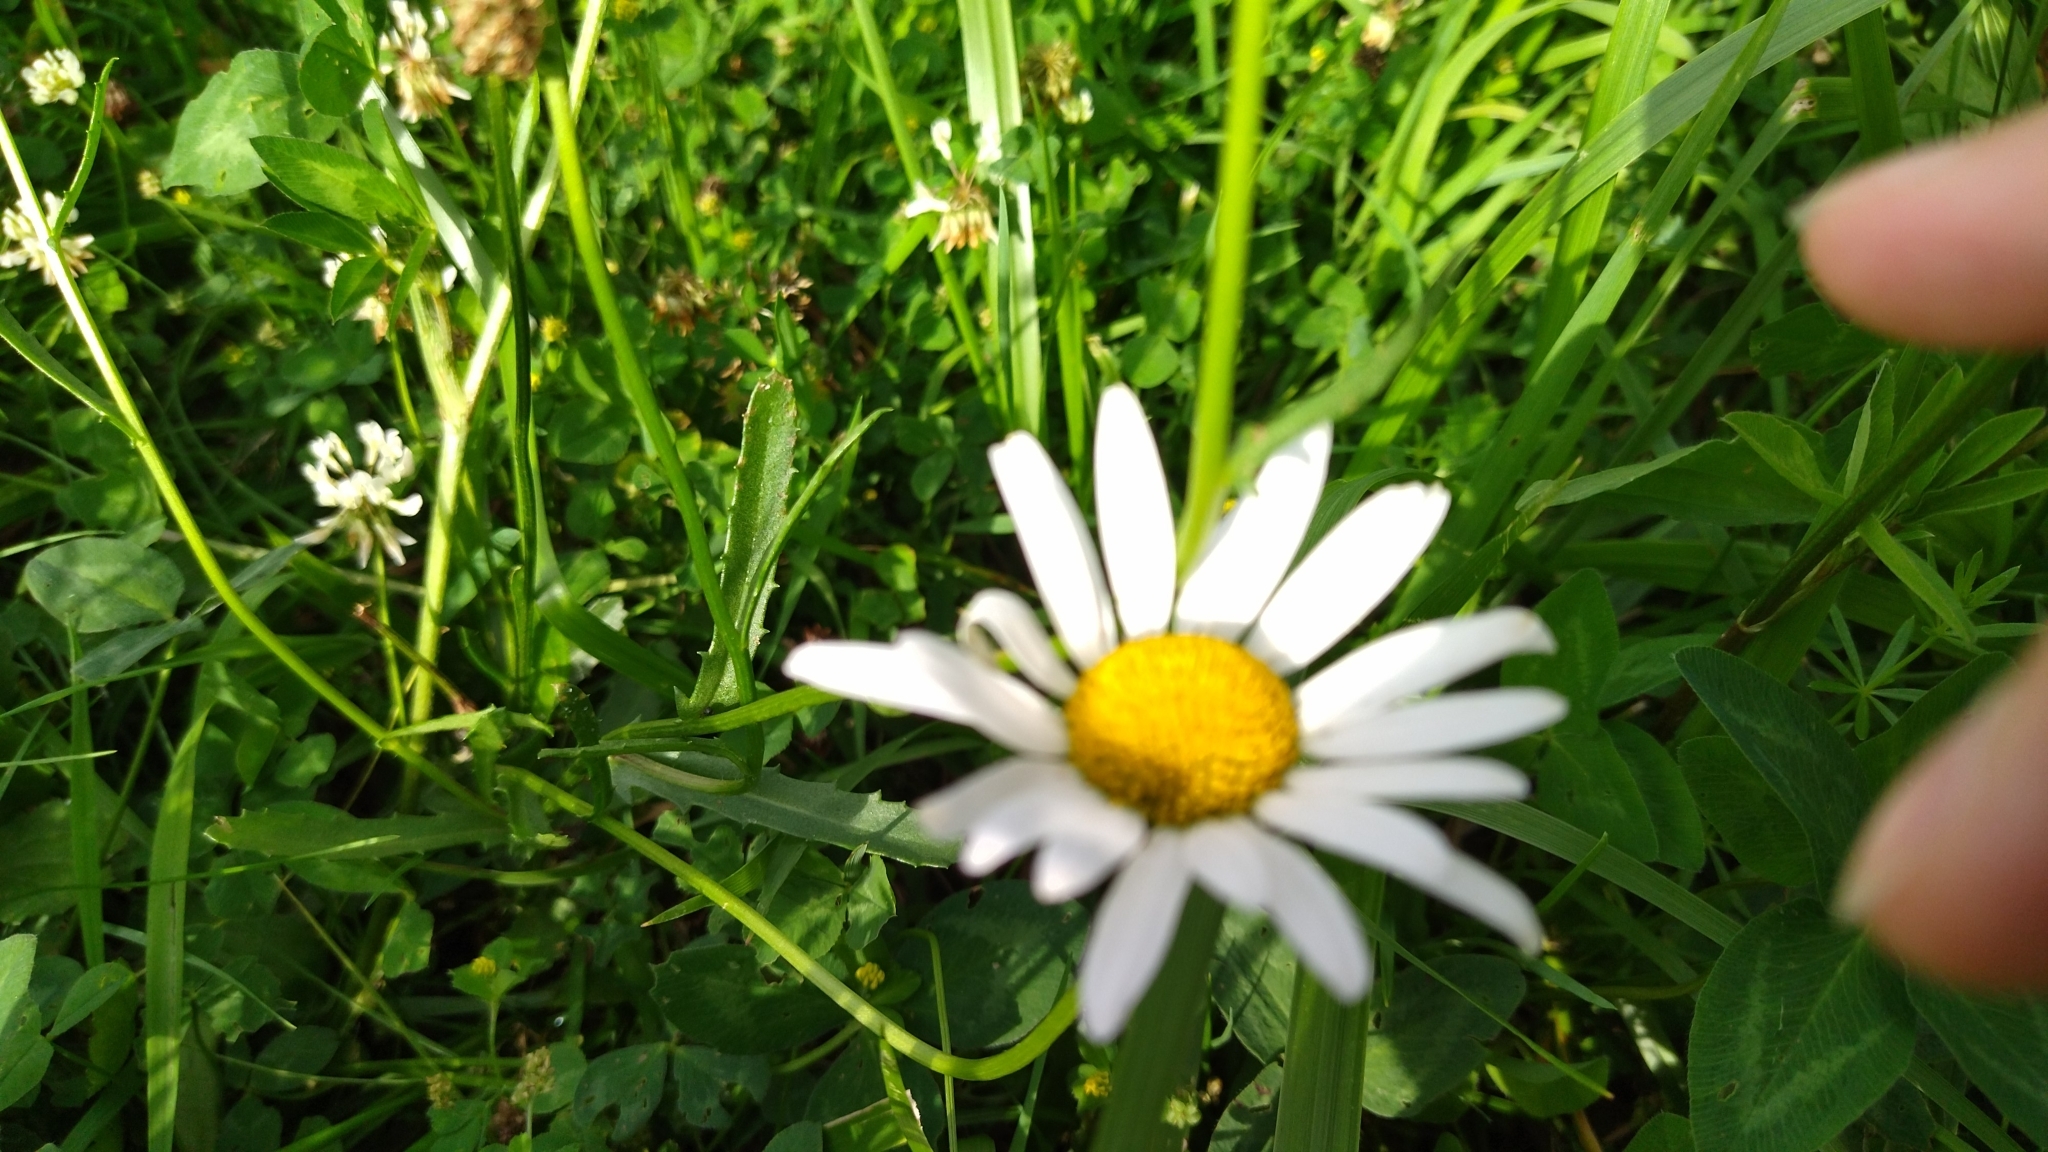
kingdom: Plantae
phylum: Tracheophyta
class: Magnoliopsida
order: Asterales
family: Asteraceae
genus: Leucanthemum
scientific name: Leucanthemum vulgare
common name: Oxeye daisy
